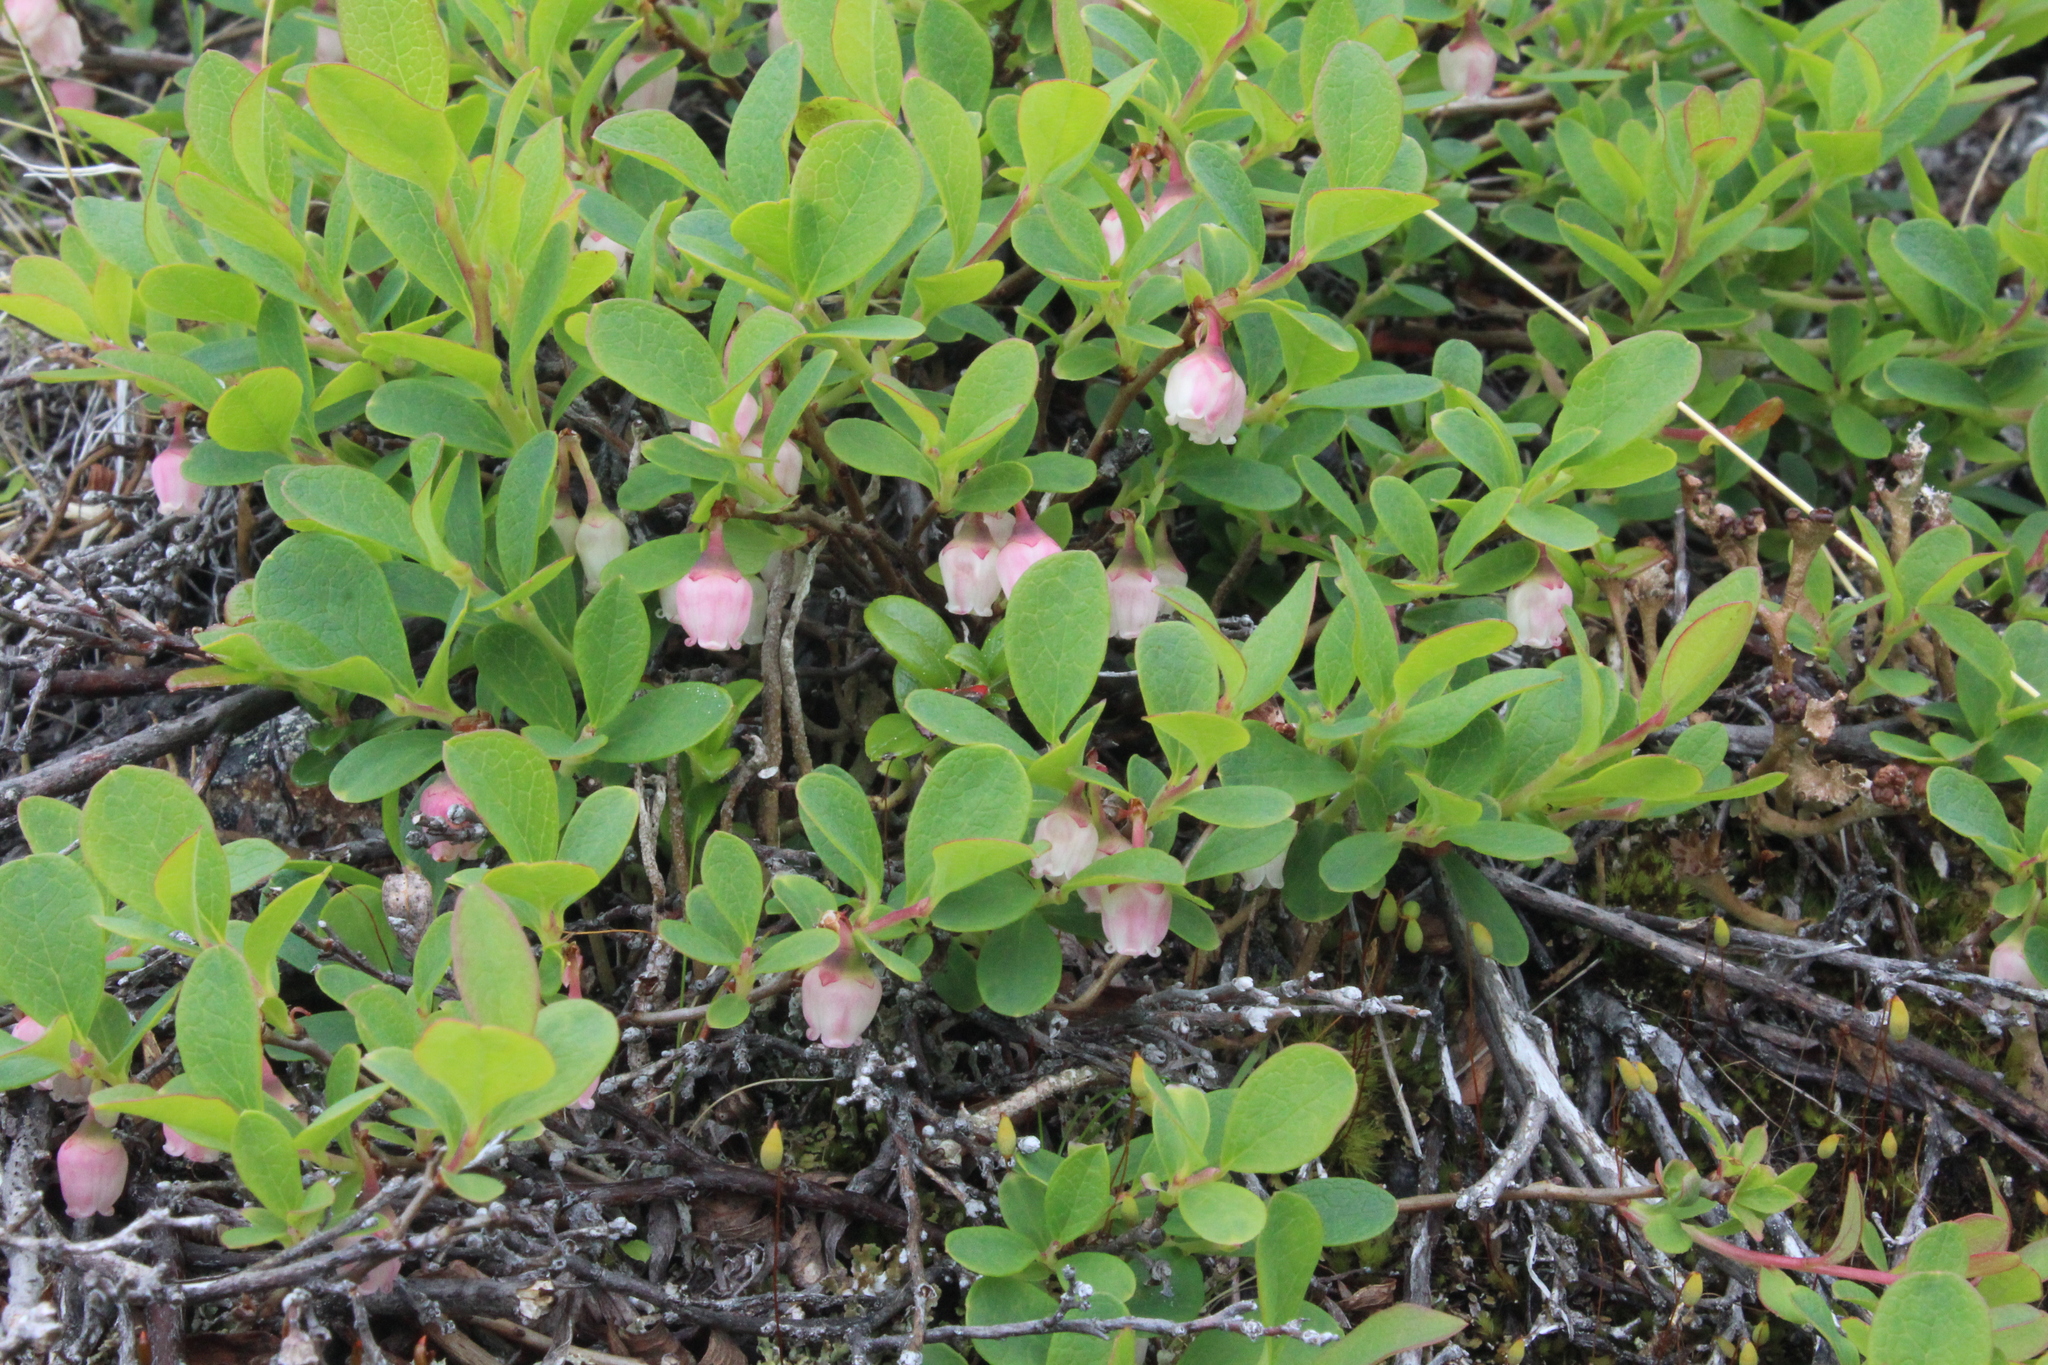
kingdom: Plantae
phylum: Tracheophyta
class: Magnoliopsida
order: Ericales
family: Ericaceae
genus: Vaccinium
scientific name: Vaccinium uliginosum
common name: Bog bilberry
